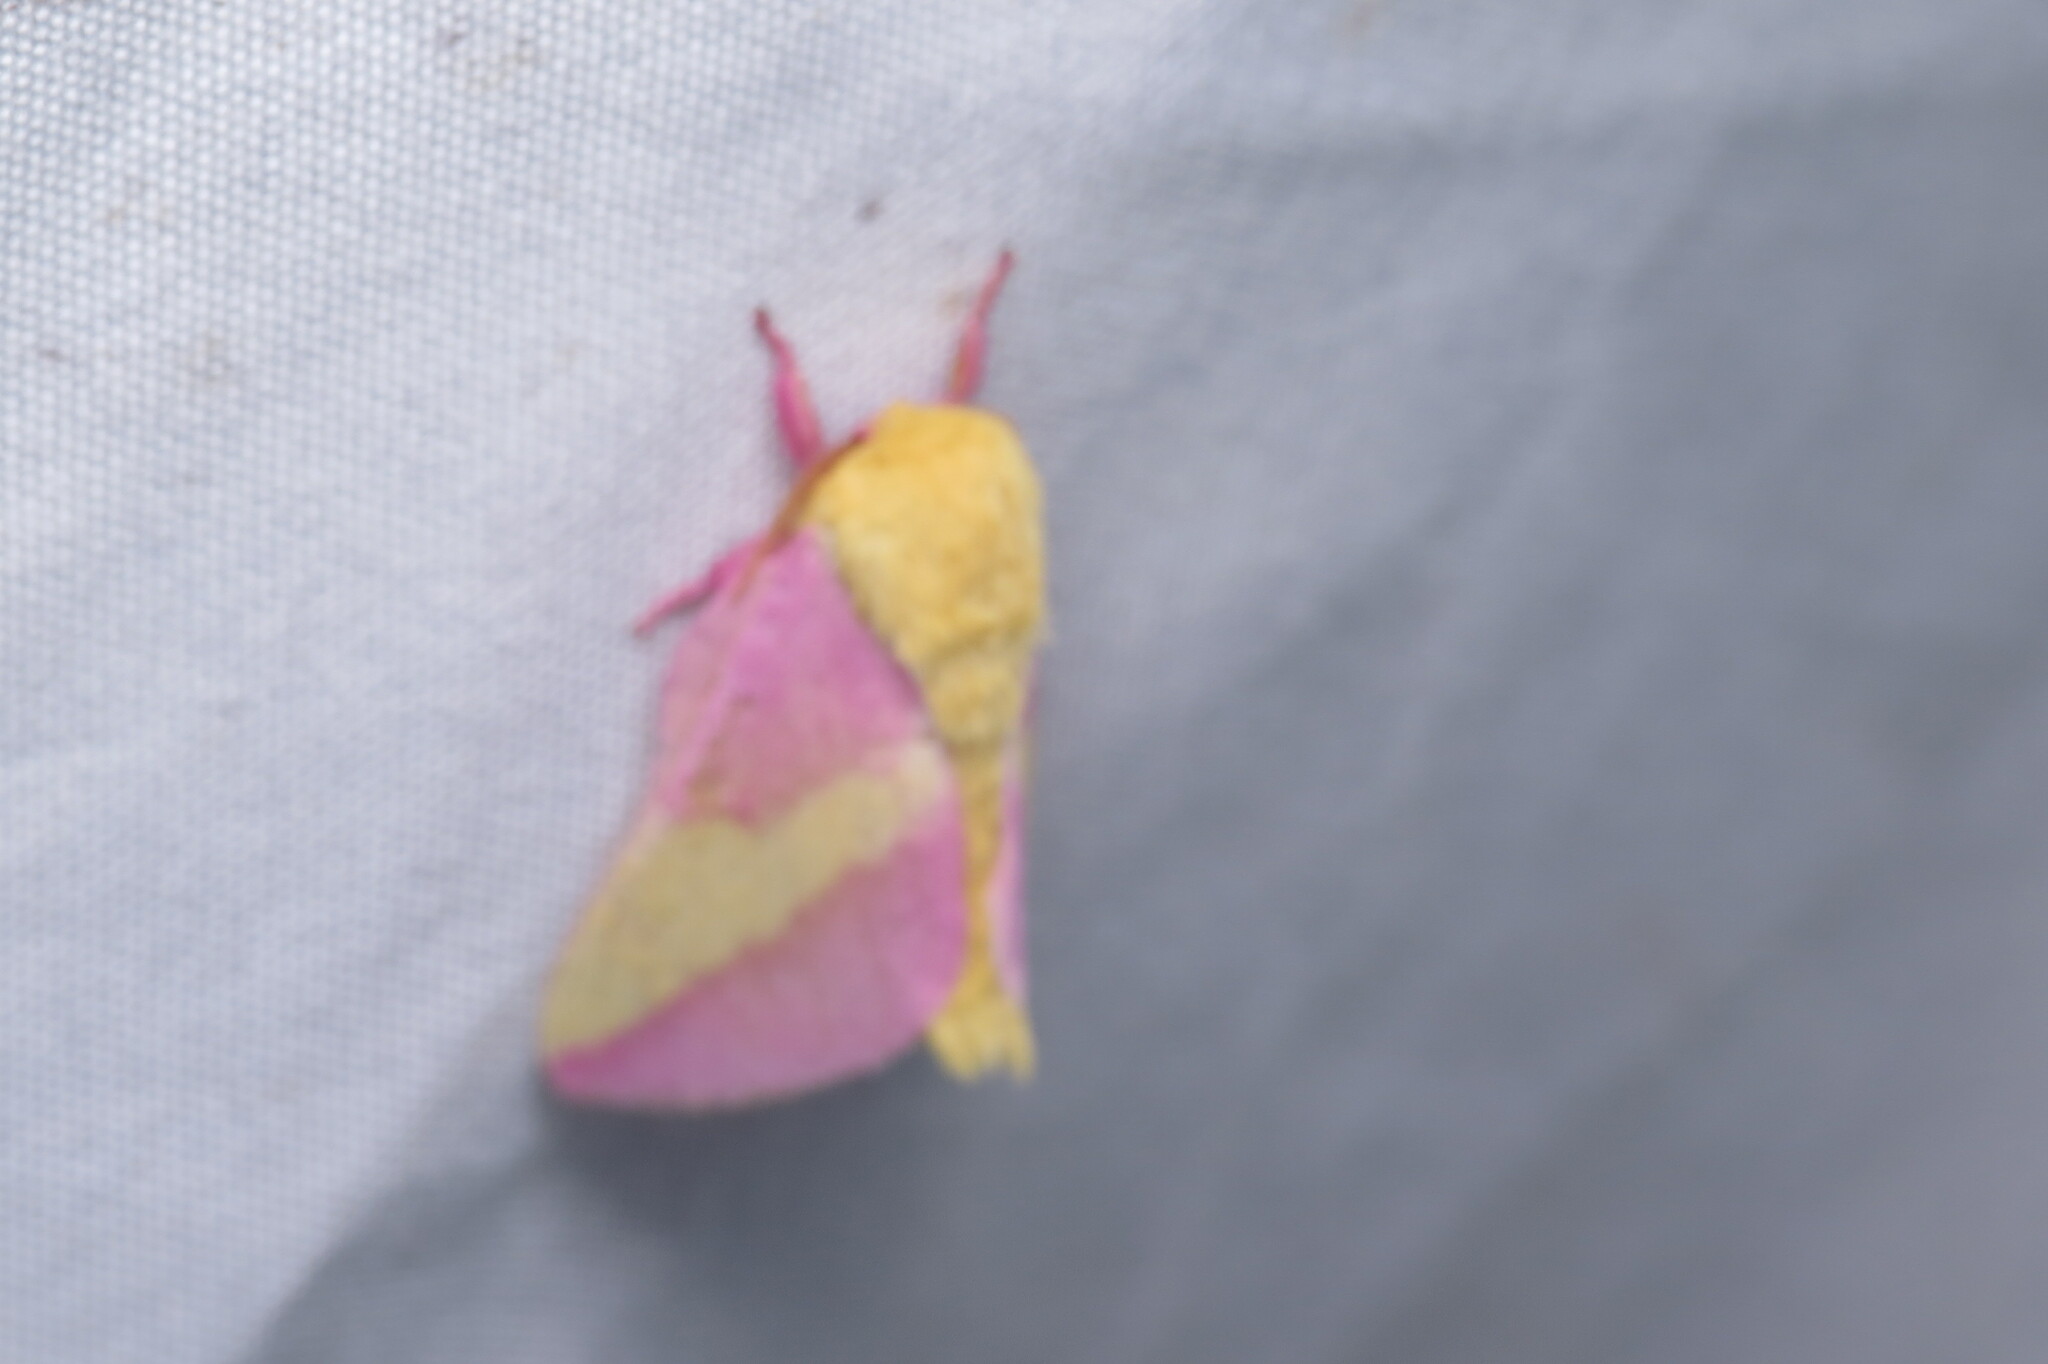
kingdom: Animalia
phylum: Arthropoda
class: Insecta
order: Lepidoptera
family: Saturniidae
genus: Dryocampa
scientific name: Dryocampa rubicunda
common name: Rosy maple moth
